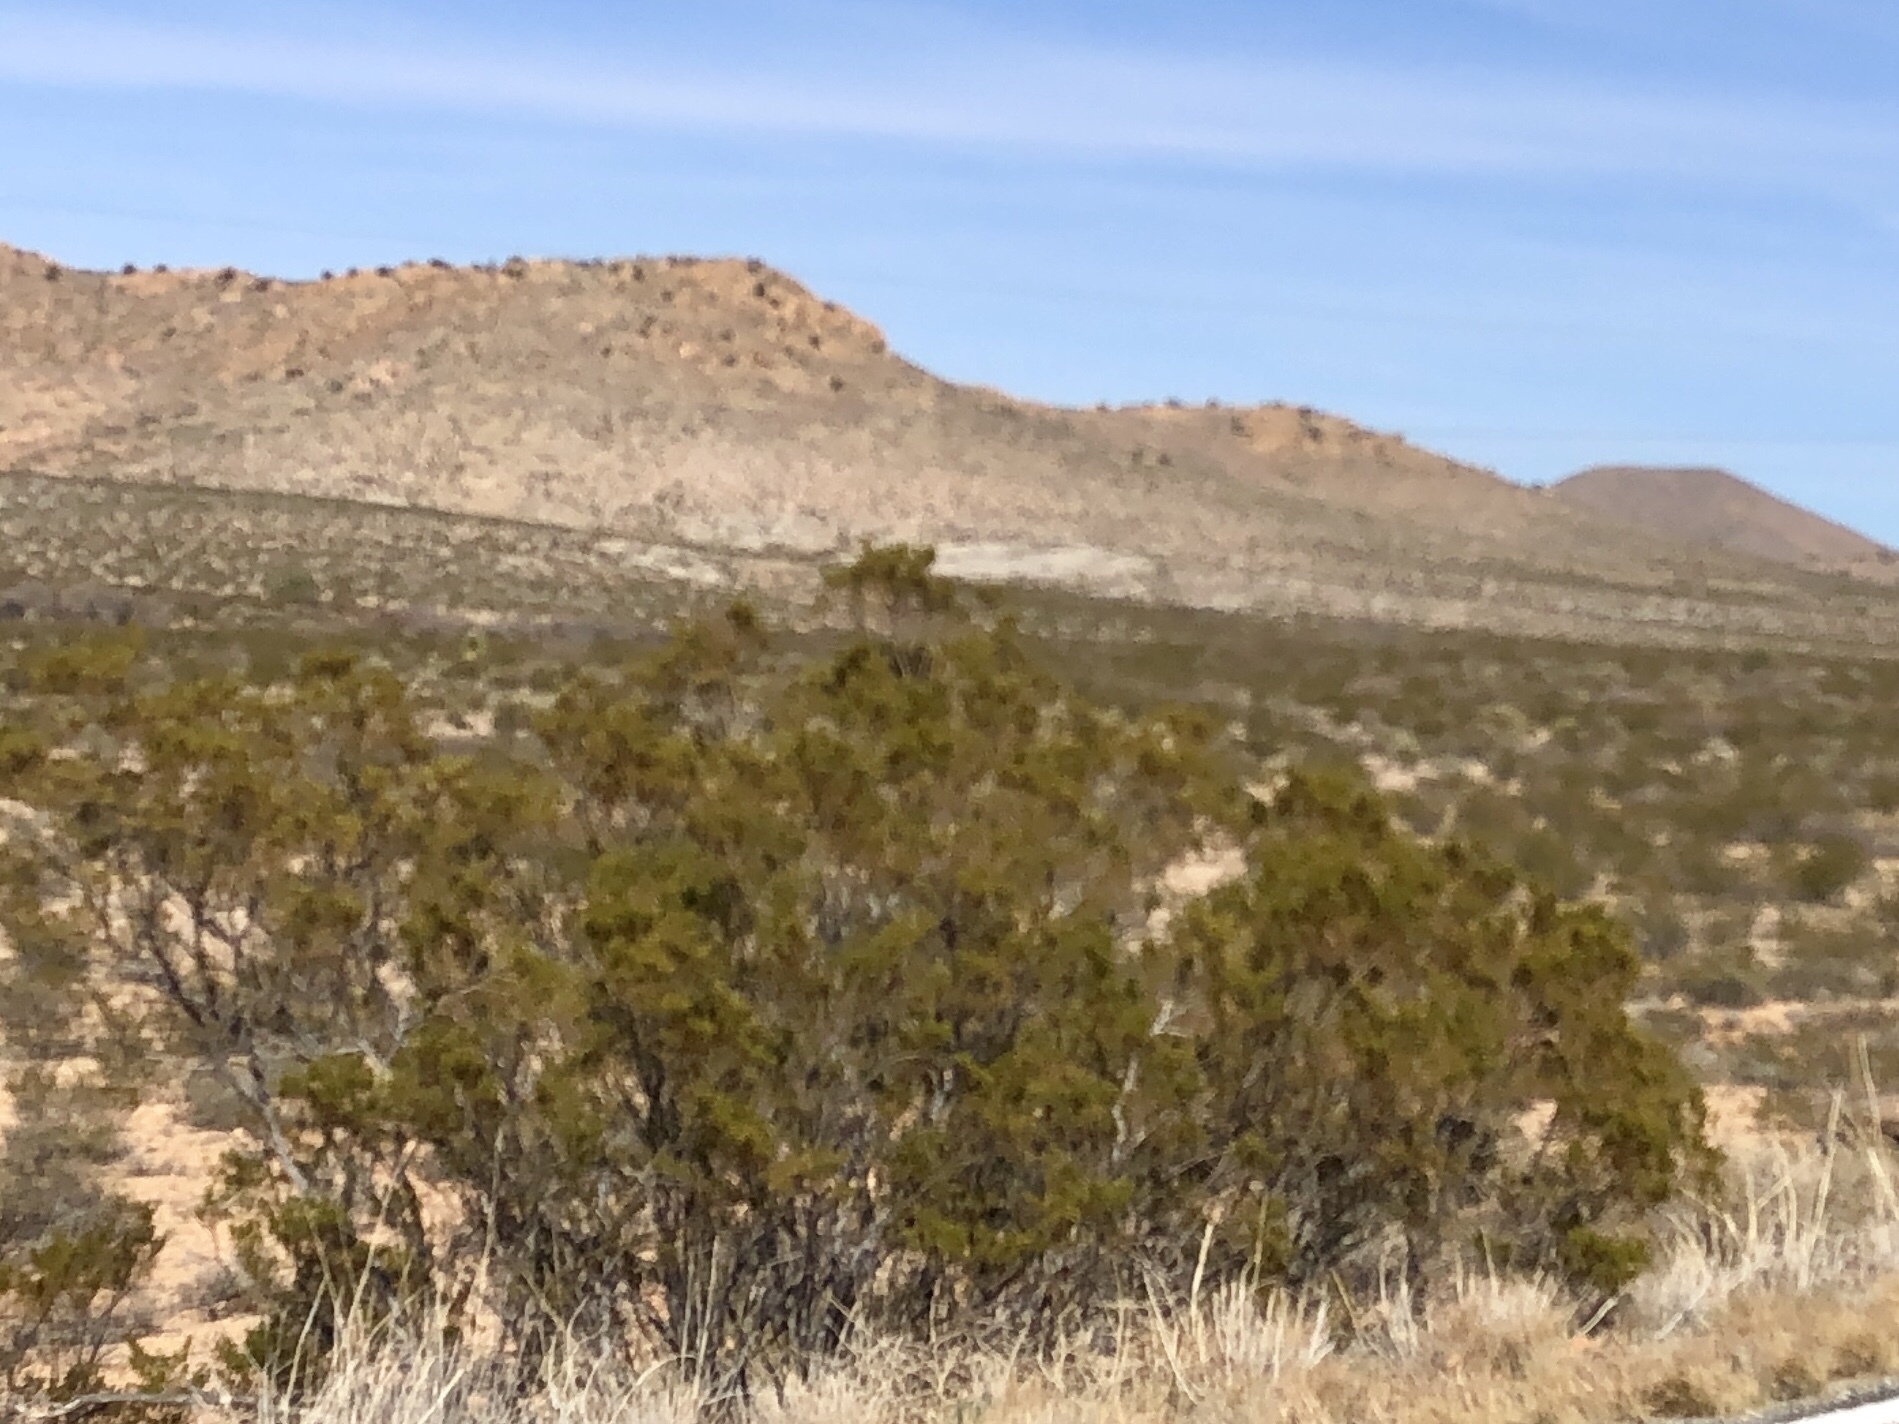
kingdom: Plantae
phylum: Tracheophyta
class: Magnoliopsida
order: Zygophyllales
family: Zygophyllaceae
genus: Larrea
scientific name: Larrea tridentata
